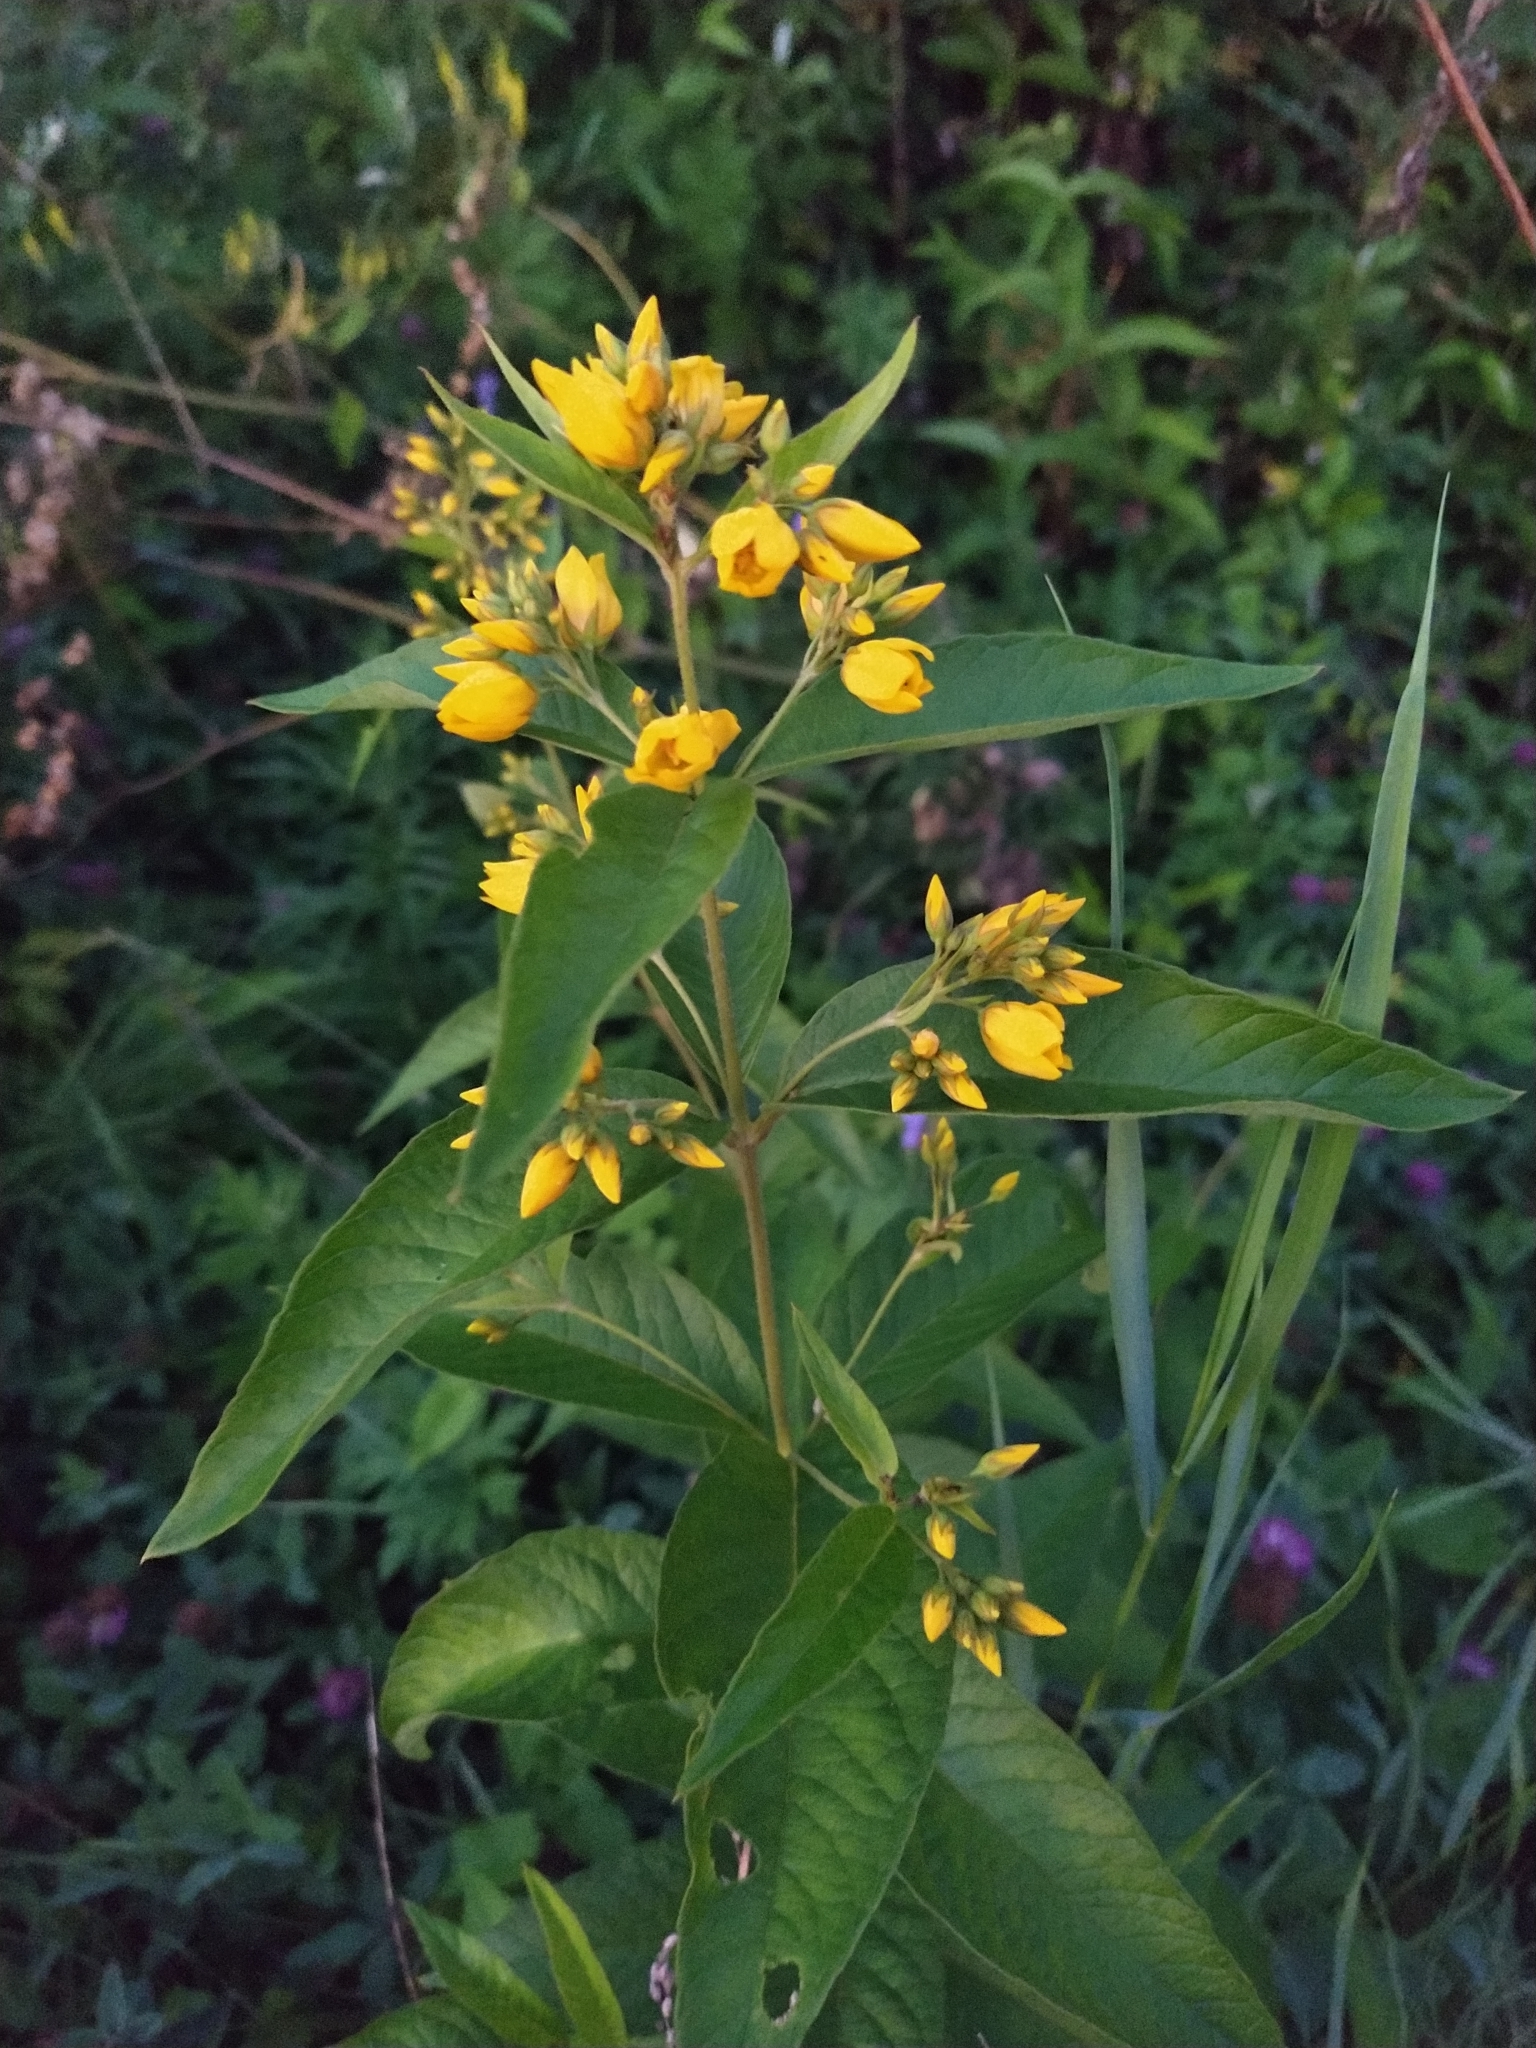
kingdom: Plantae
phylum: Tracheophyta
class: Magnoliopsida
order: Ericales
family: Primulaceae
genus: Lysimachia
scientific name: Lysimachia vulgaris
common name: Yellow loosestrife
